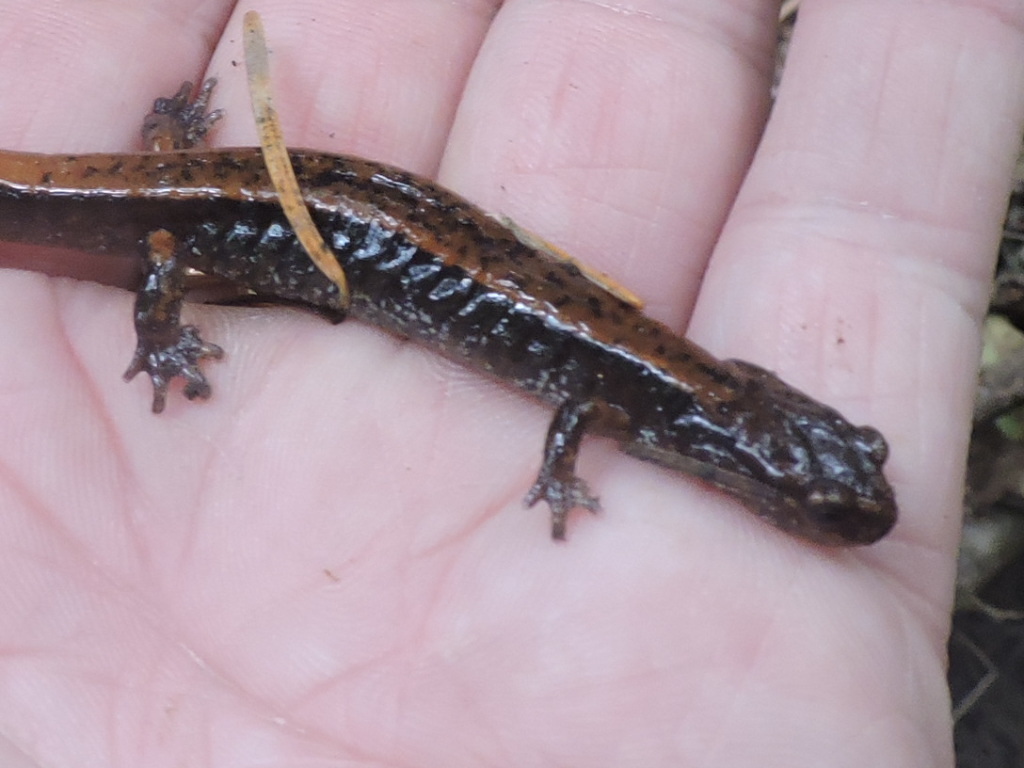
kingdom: Animalia
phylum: Chordata
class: Amphibia
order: Caudata
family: Plethodontidae
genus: Plethodon
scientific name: Plethodon vehiculum
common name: Western red-backed salamander
